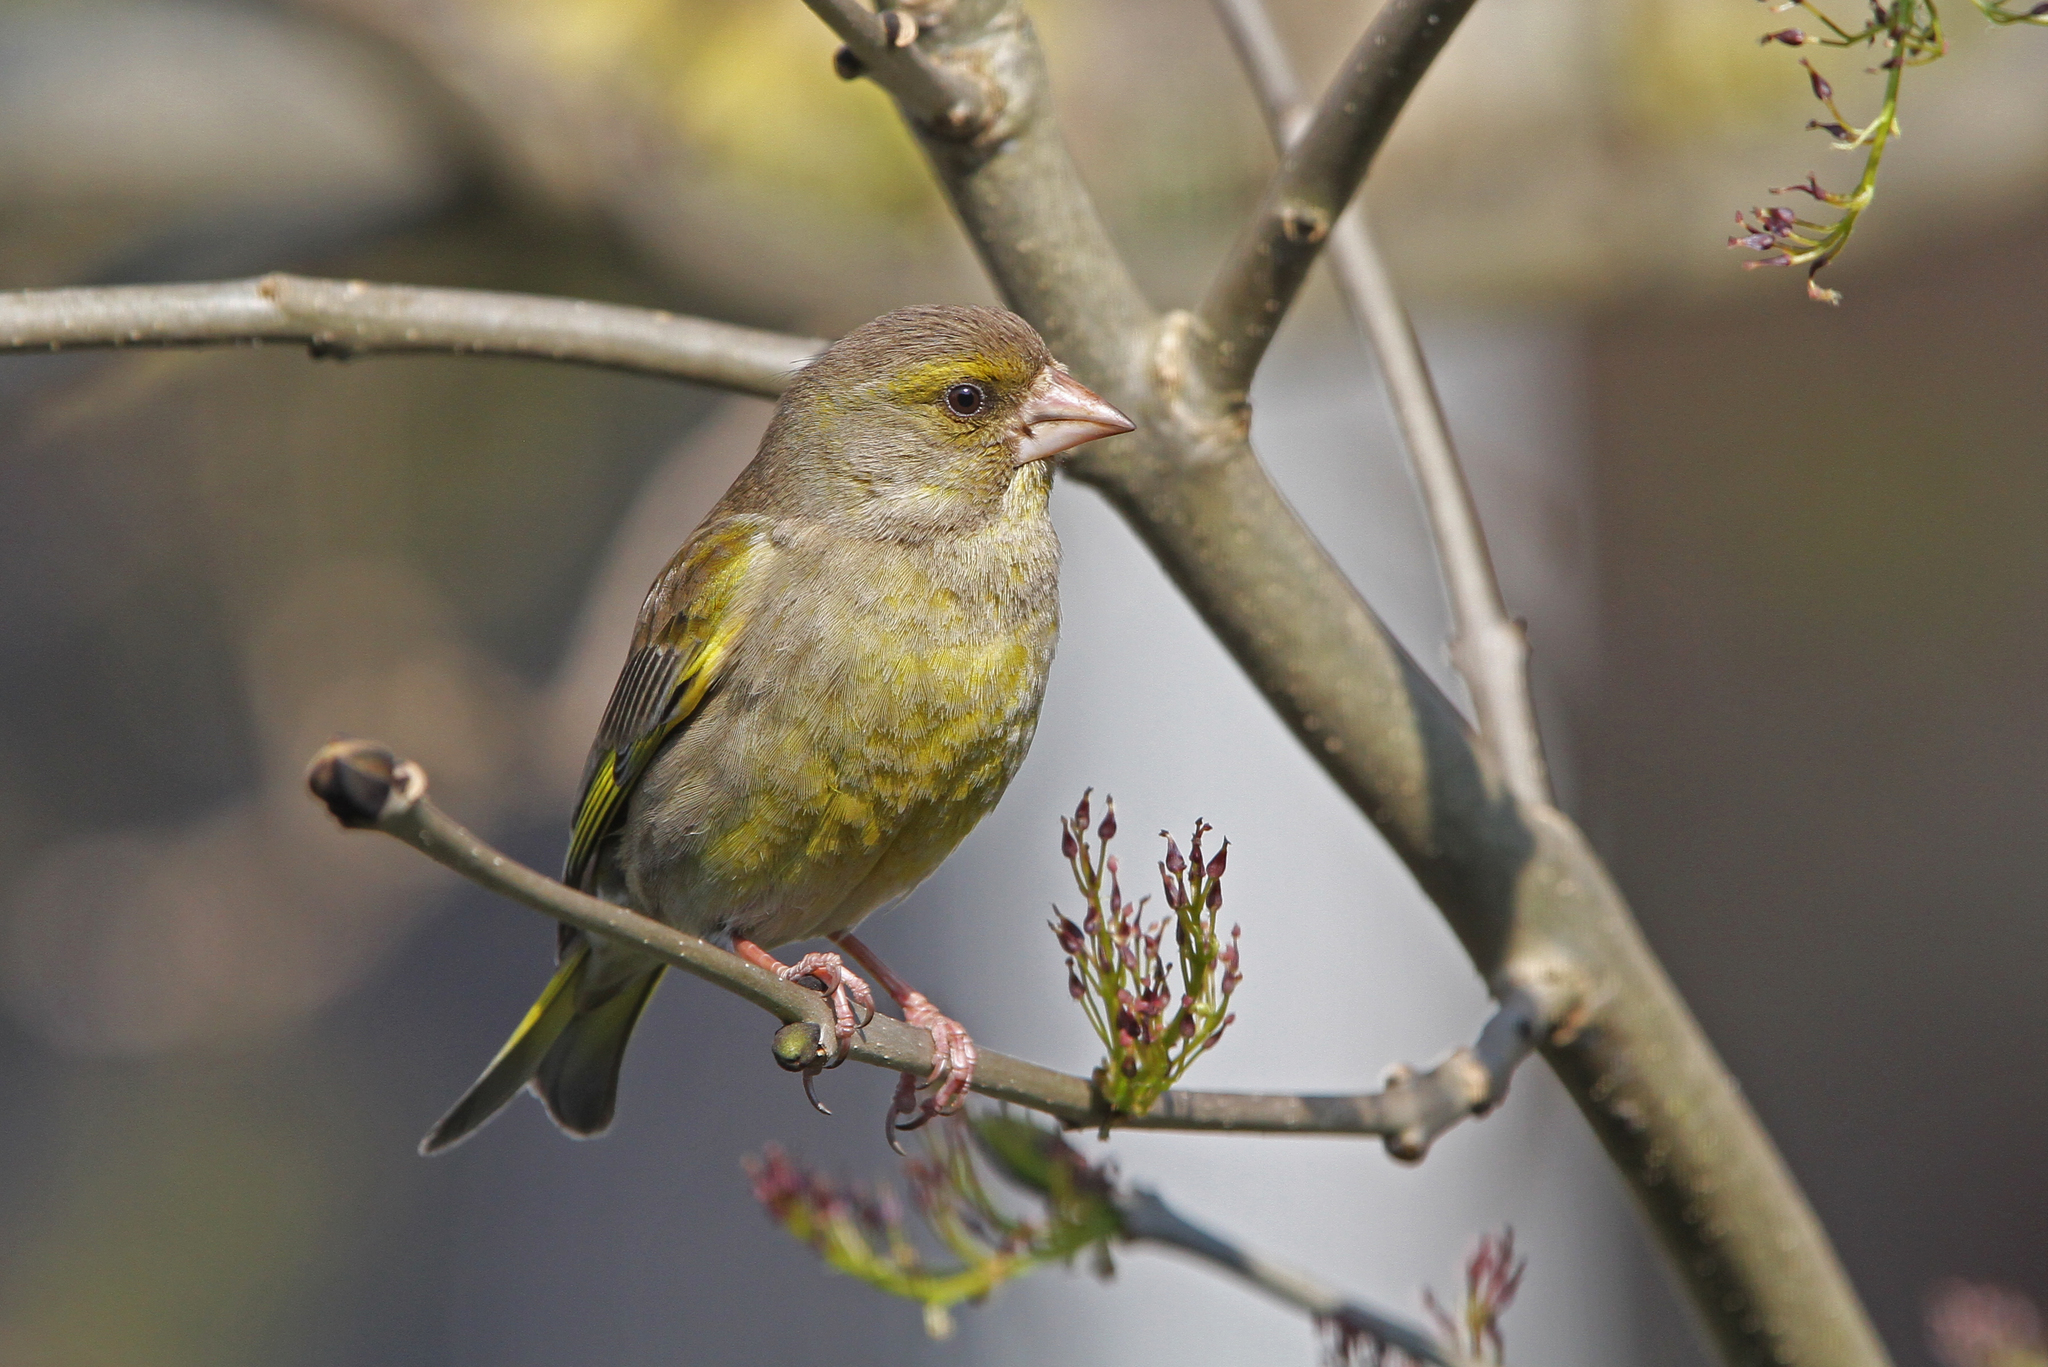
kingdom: Plantae
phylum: Tracheophyta
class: Liliopsida
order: Poales
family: Poaceae
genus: Chloris
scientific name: Chloris chloris
